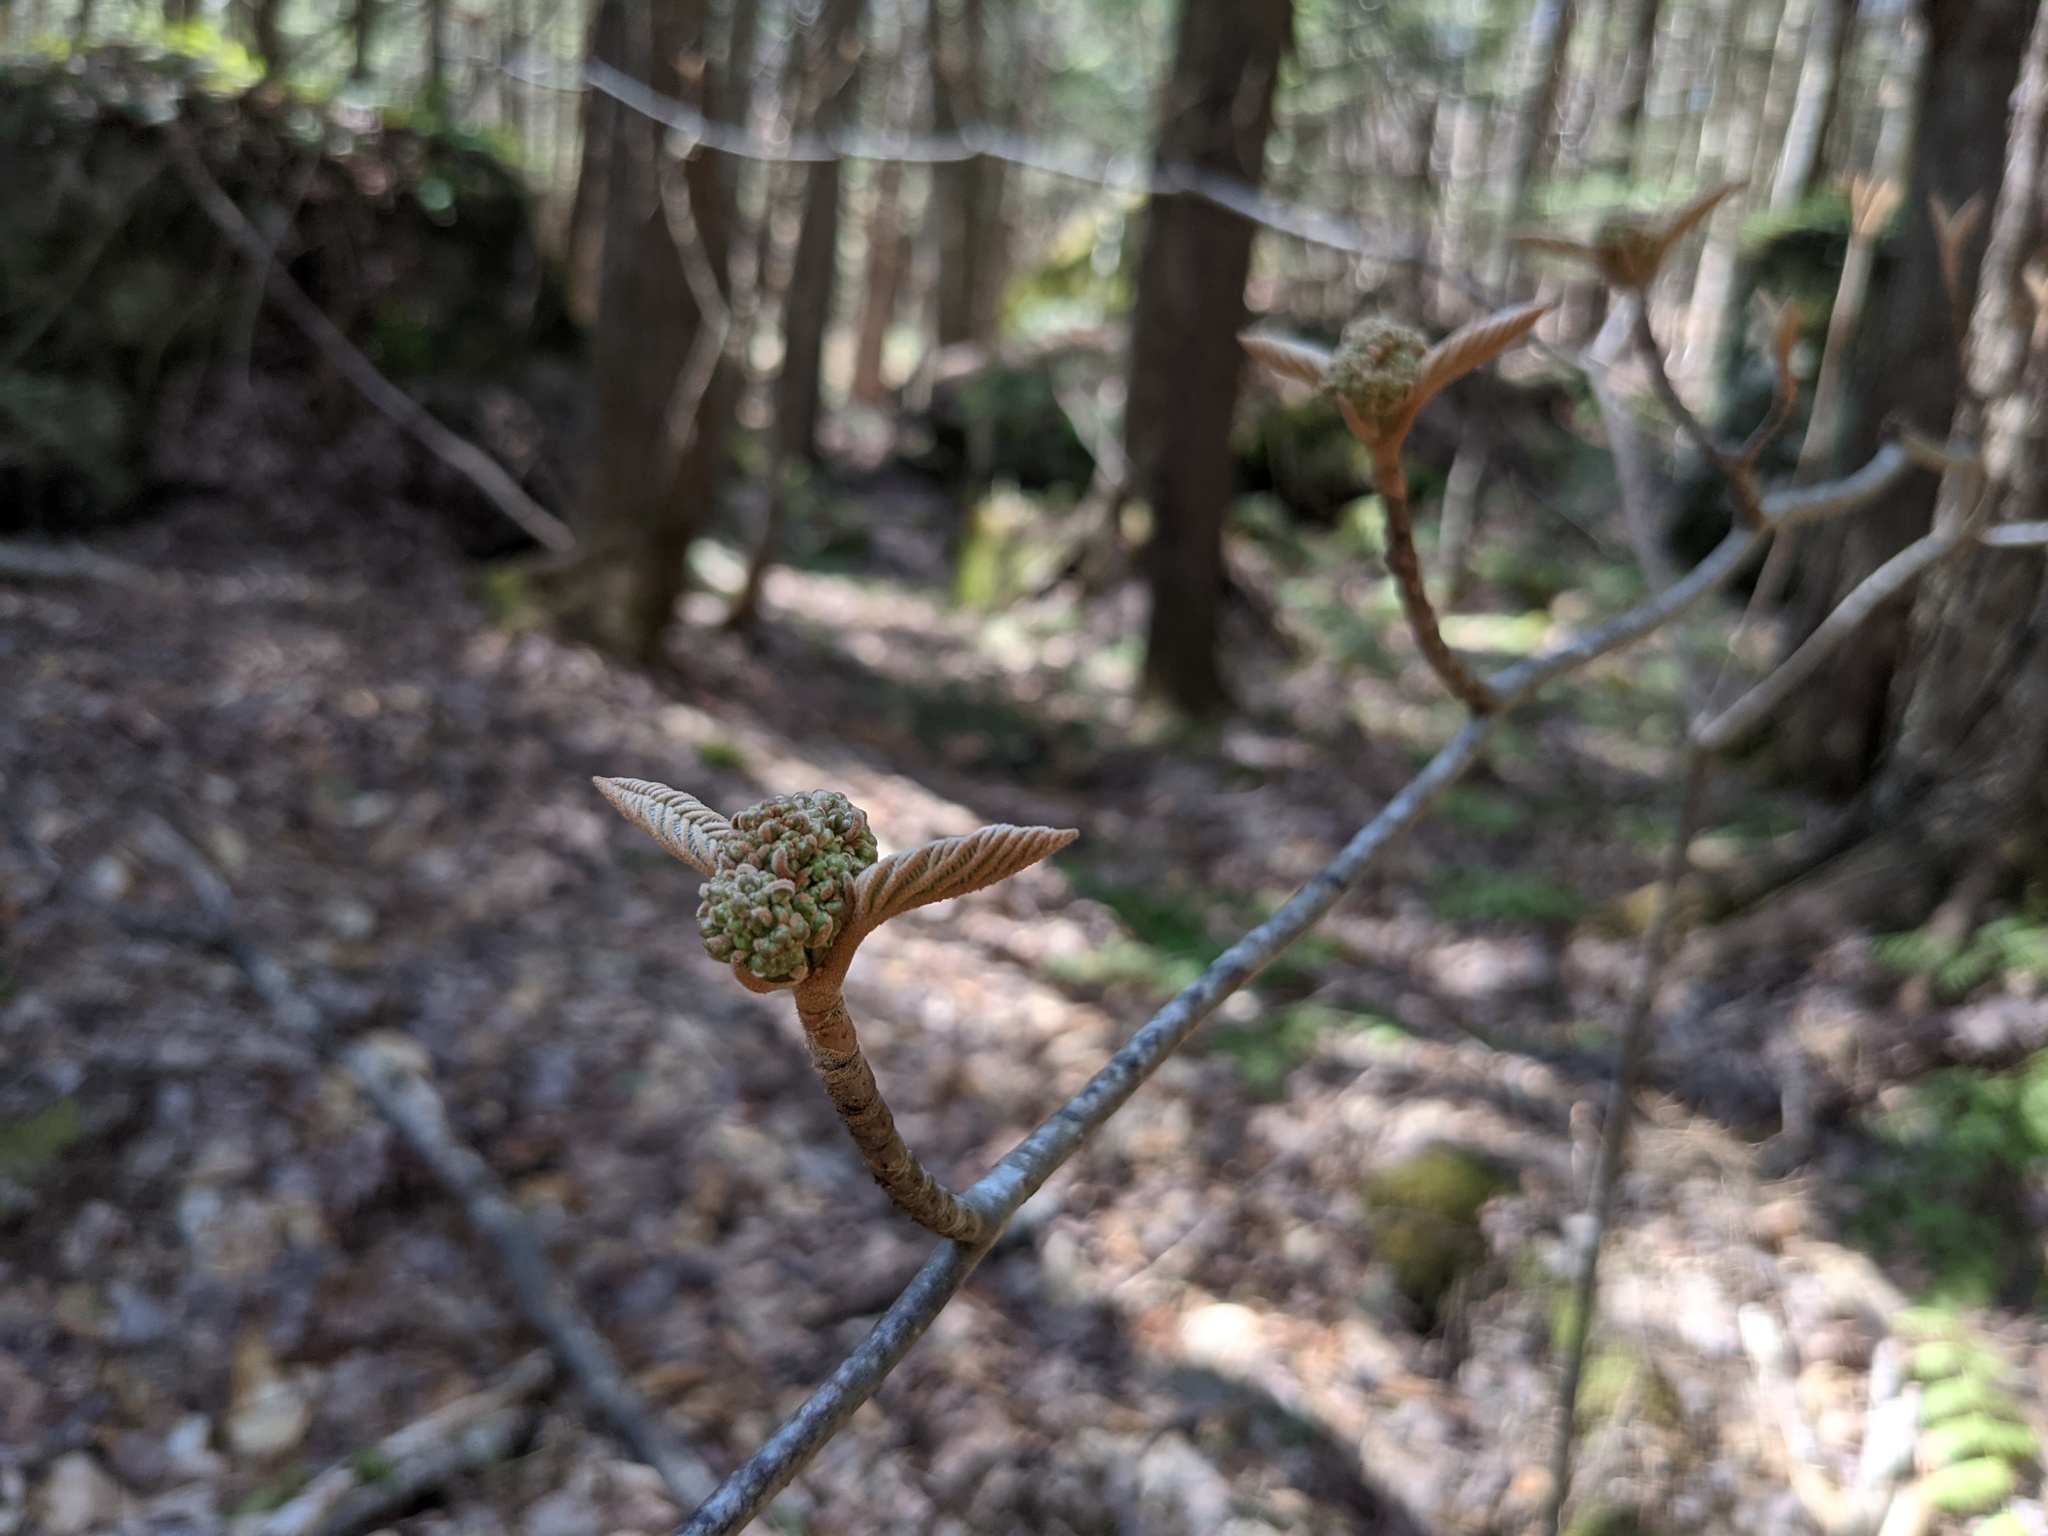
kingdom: Plantae
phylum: Tracheophyta
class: Magnoliopsida
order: Dipsacales
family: Viburnaceae
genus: Viburnum
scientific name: Viburnum lantanoides
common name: Hobblebush
